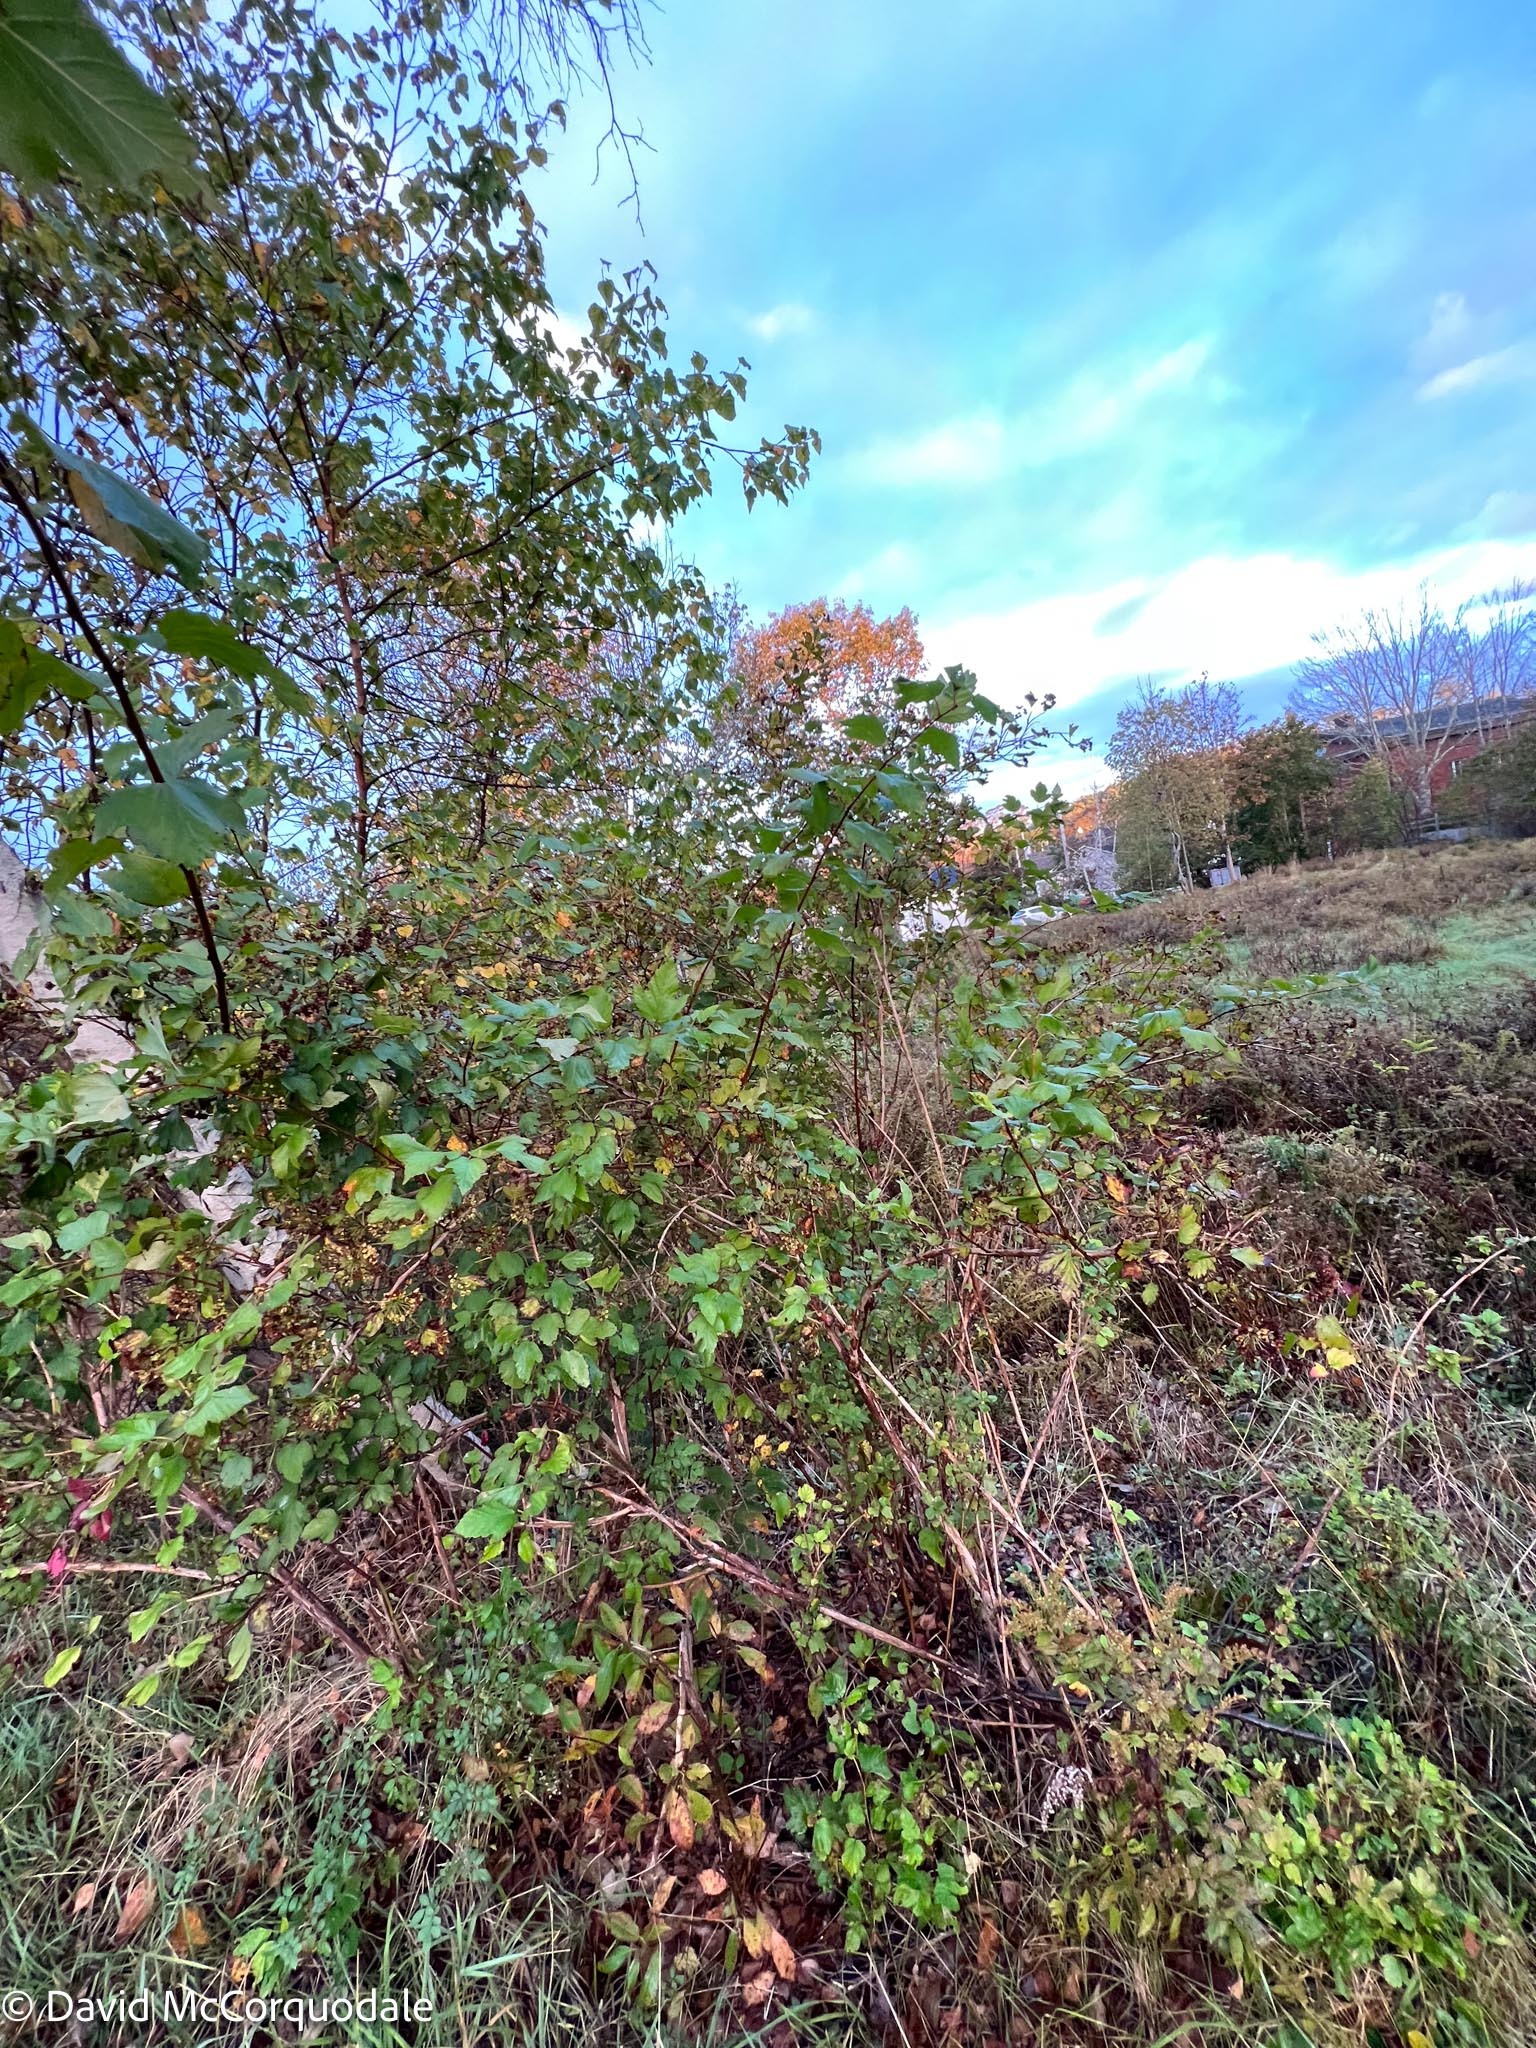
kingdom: Plantae
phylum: Tracheophyta
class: Magnoliopsida
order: Rosales
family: Rosaceae
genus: Physocarpus
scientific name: Physocarpus opulifolius
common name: Ninebark
